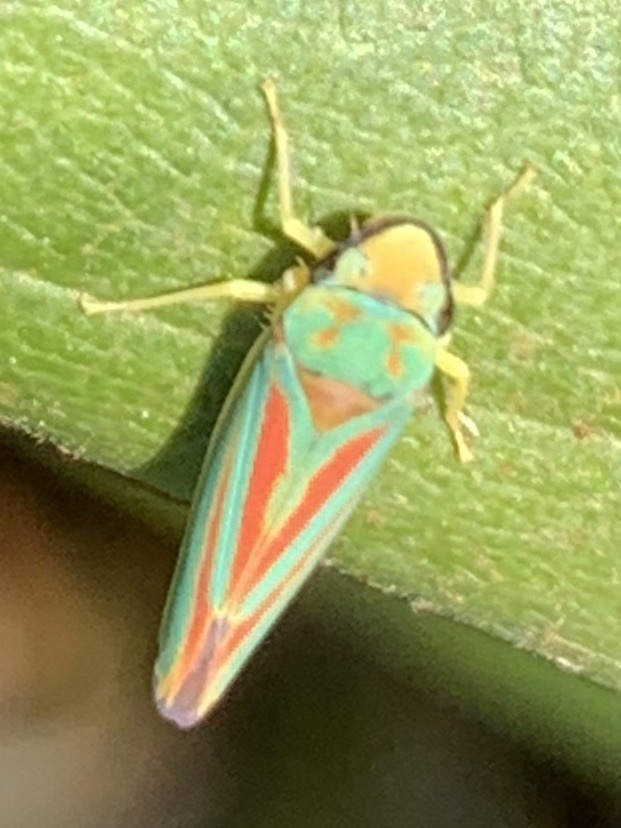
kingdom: Animalia
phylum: Arthropoda
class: Insecta
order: Hemiptera
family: Cicadellidae
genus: Graphocephala
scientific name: Graphocephala fennahi
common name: Rhododendron leafhopper
